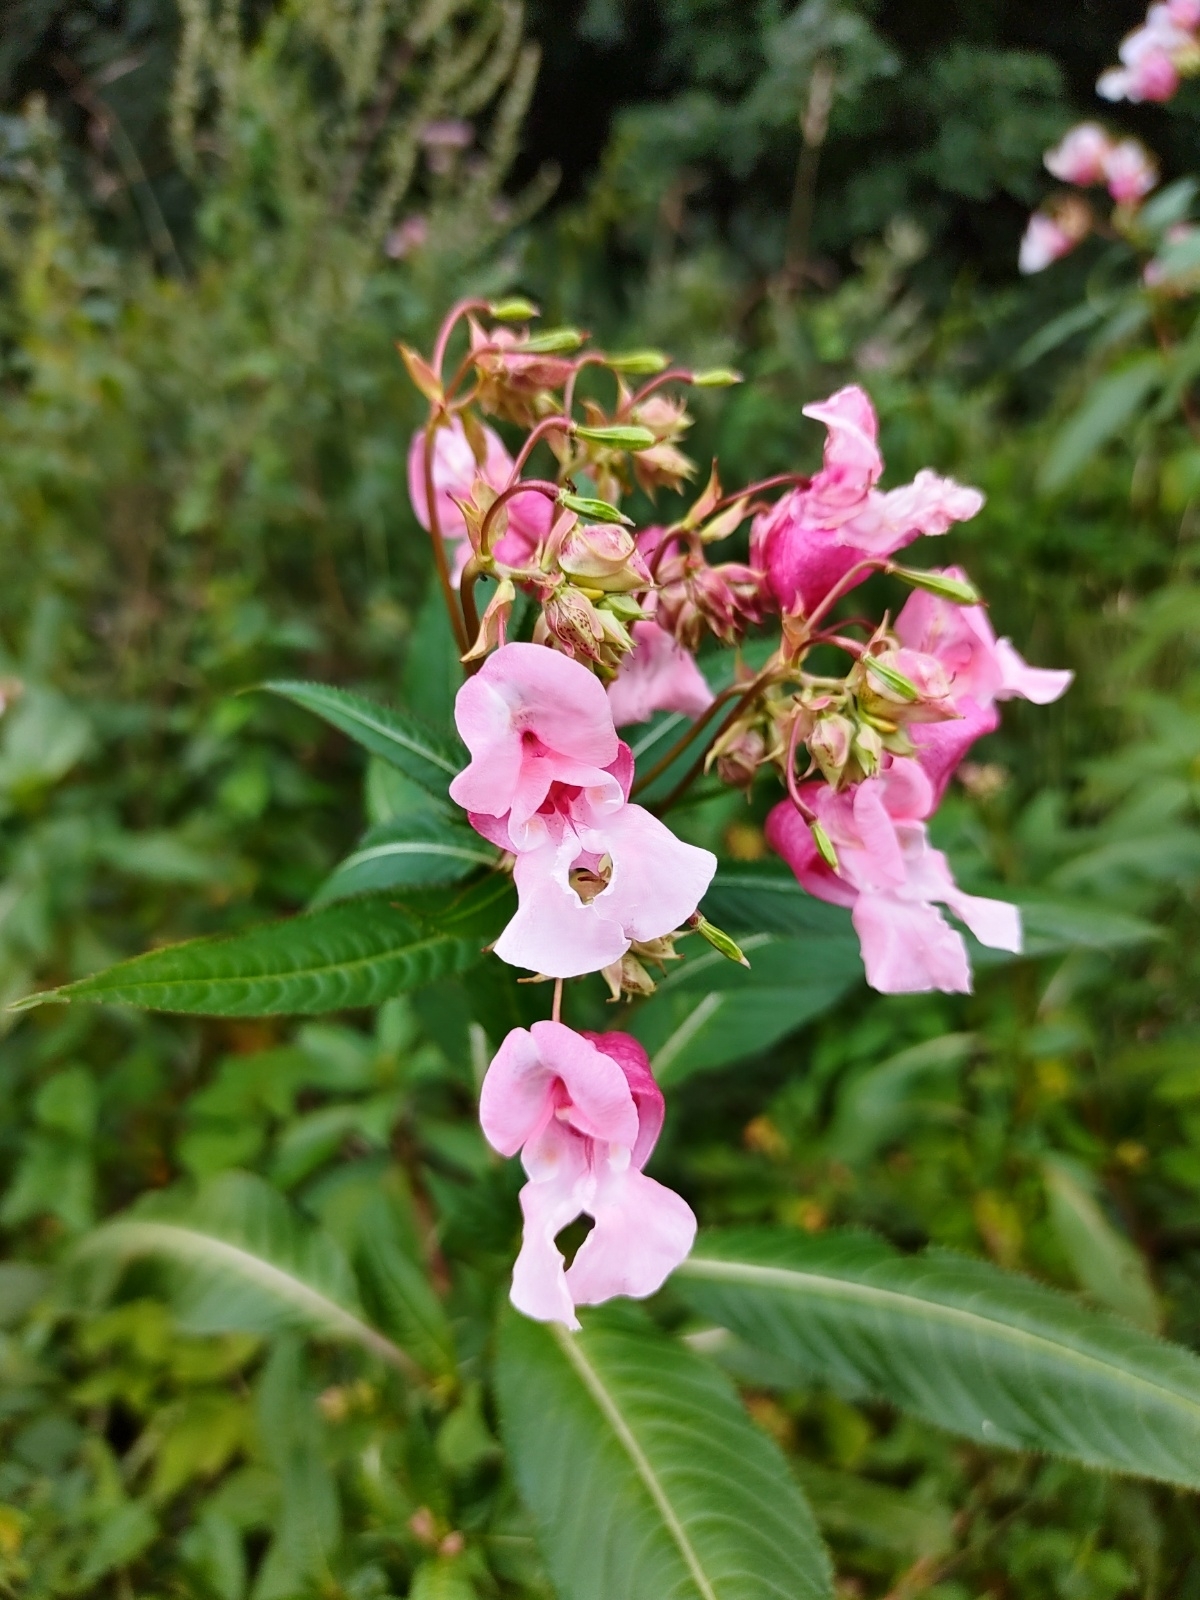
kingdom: Plantae
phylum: Tracheophyta
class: Magnoliopsida
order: Ericales
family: Balsaminaceae
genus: Impatiens
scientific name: Impatiens glandulifera
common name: Himalayan balsam
